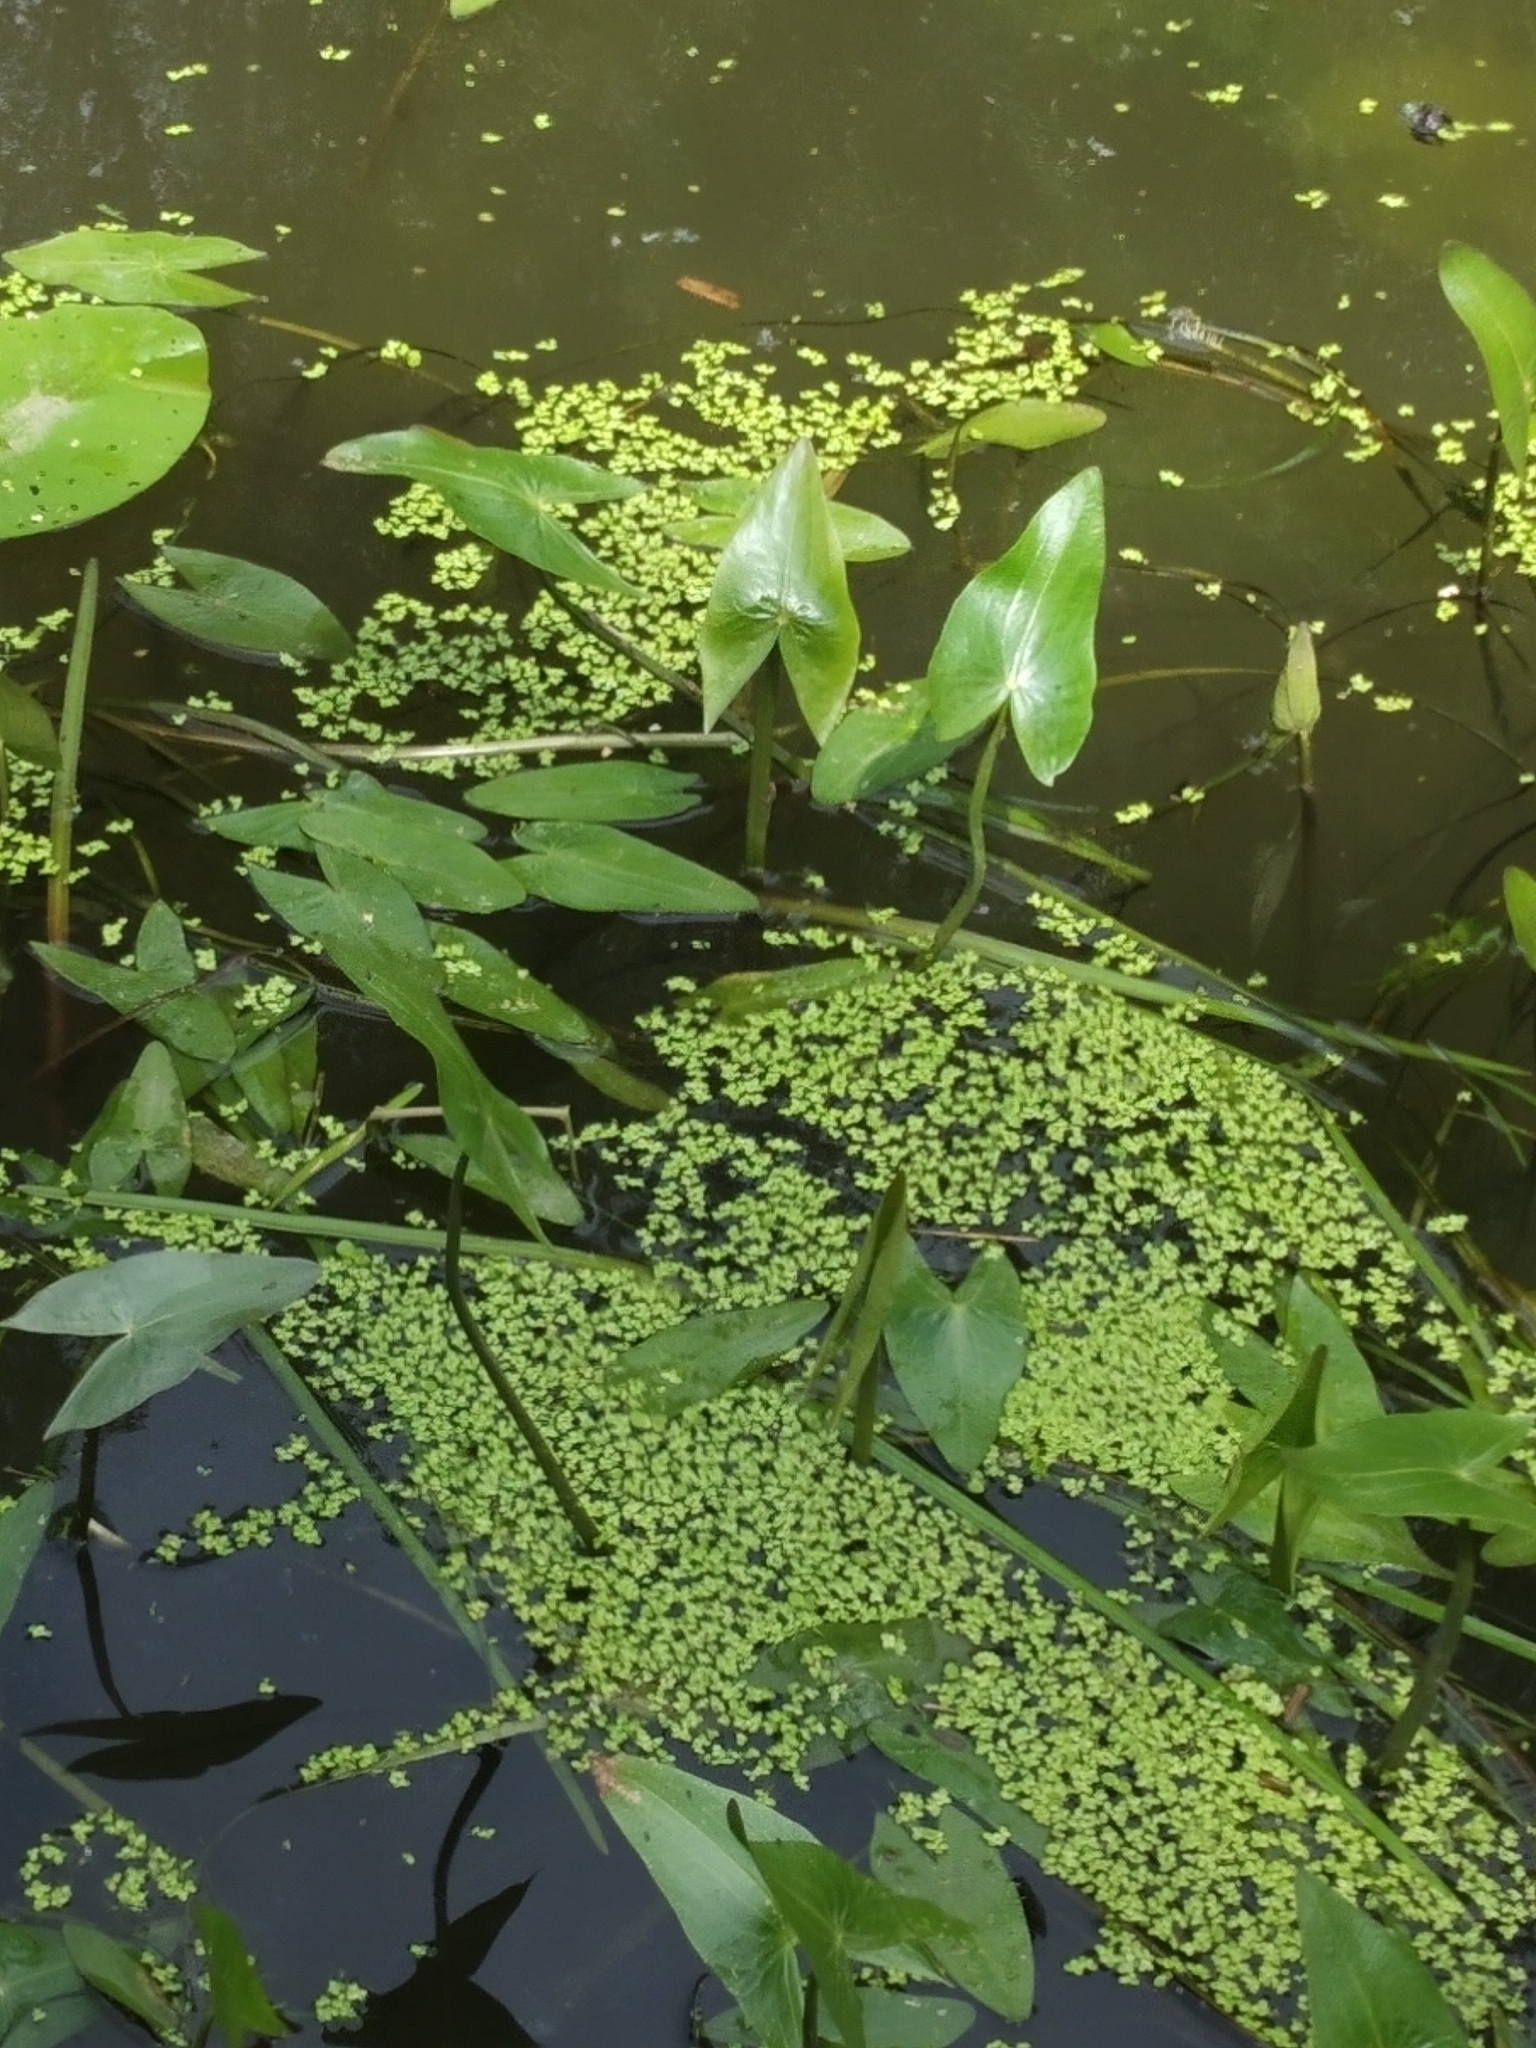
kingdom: Plantae
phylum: Tracheophyta
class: Liliopsida
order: Alismatales
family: Alismataceae
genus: Sagittaria
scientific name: Sagittaria sagittifolia
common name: Arrowhead
